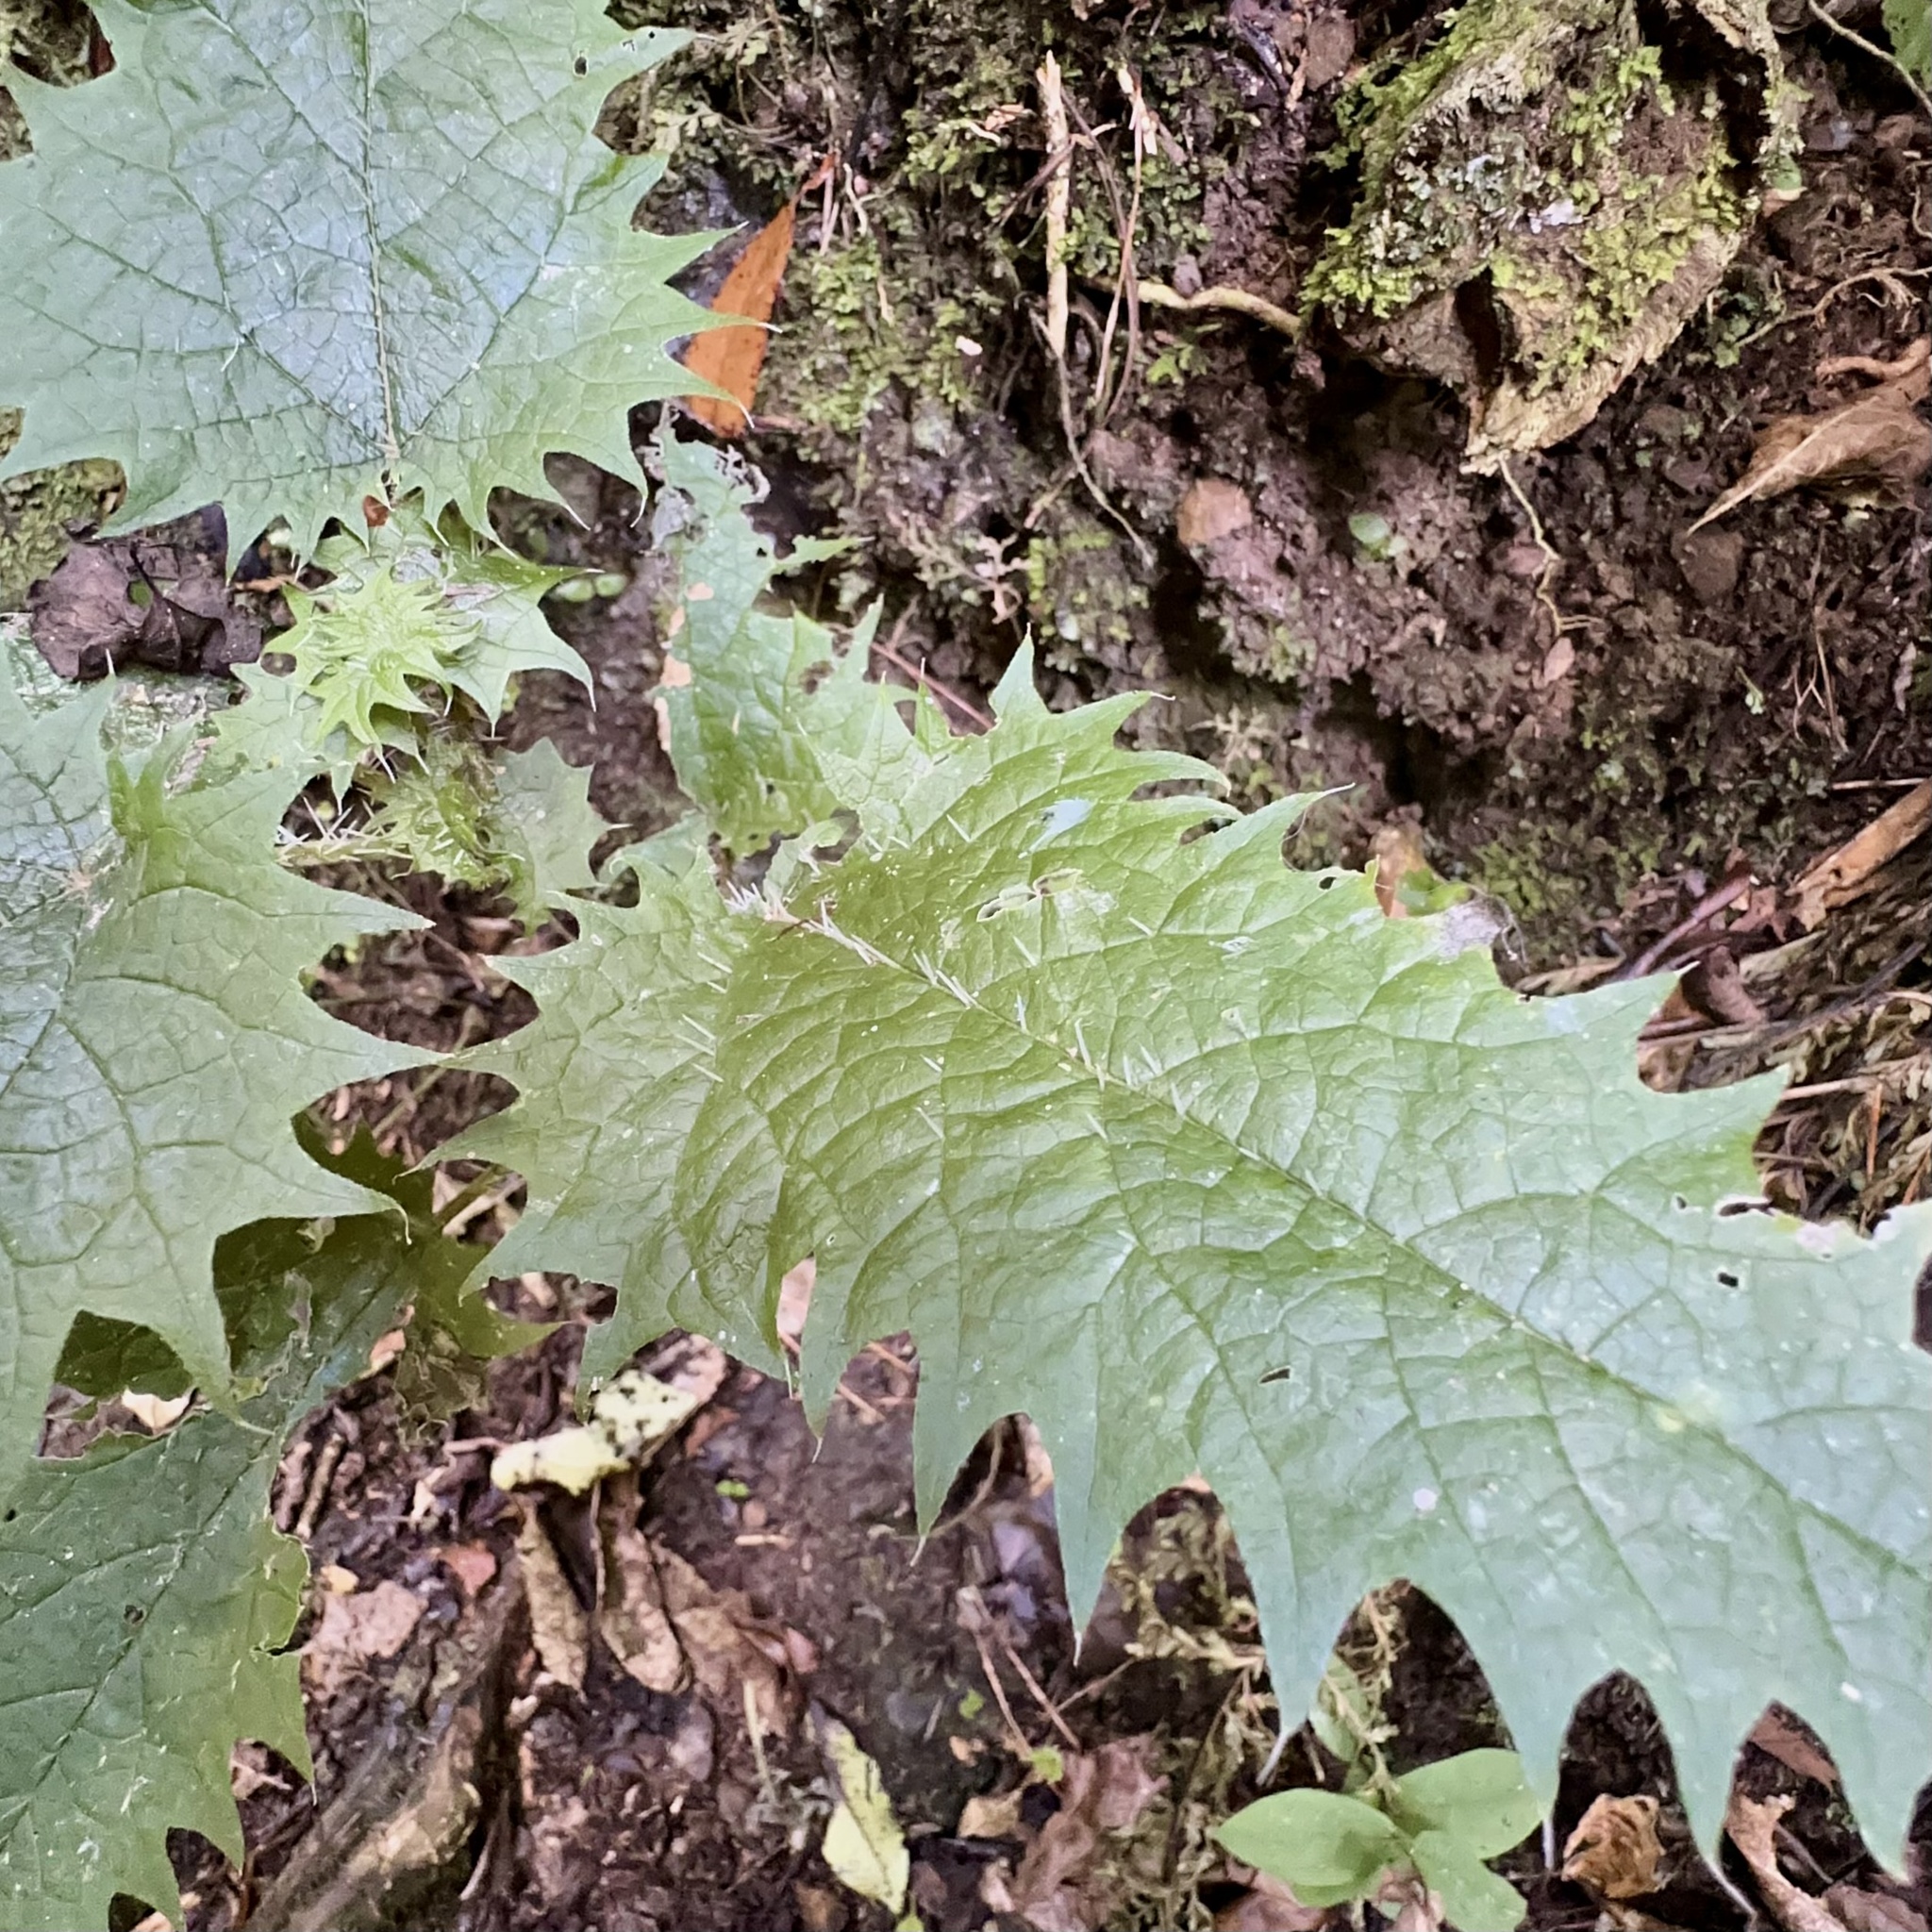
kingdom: Plantae
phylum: Tracheophyta
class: Magnoliopsida
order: Rosales
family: Urticaceae
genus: Urtica
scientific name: Urtica ferox
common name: Tree nettle
